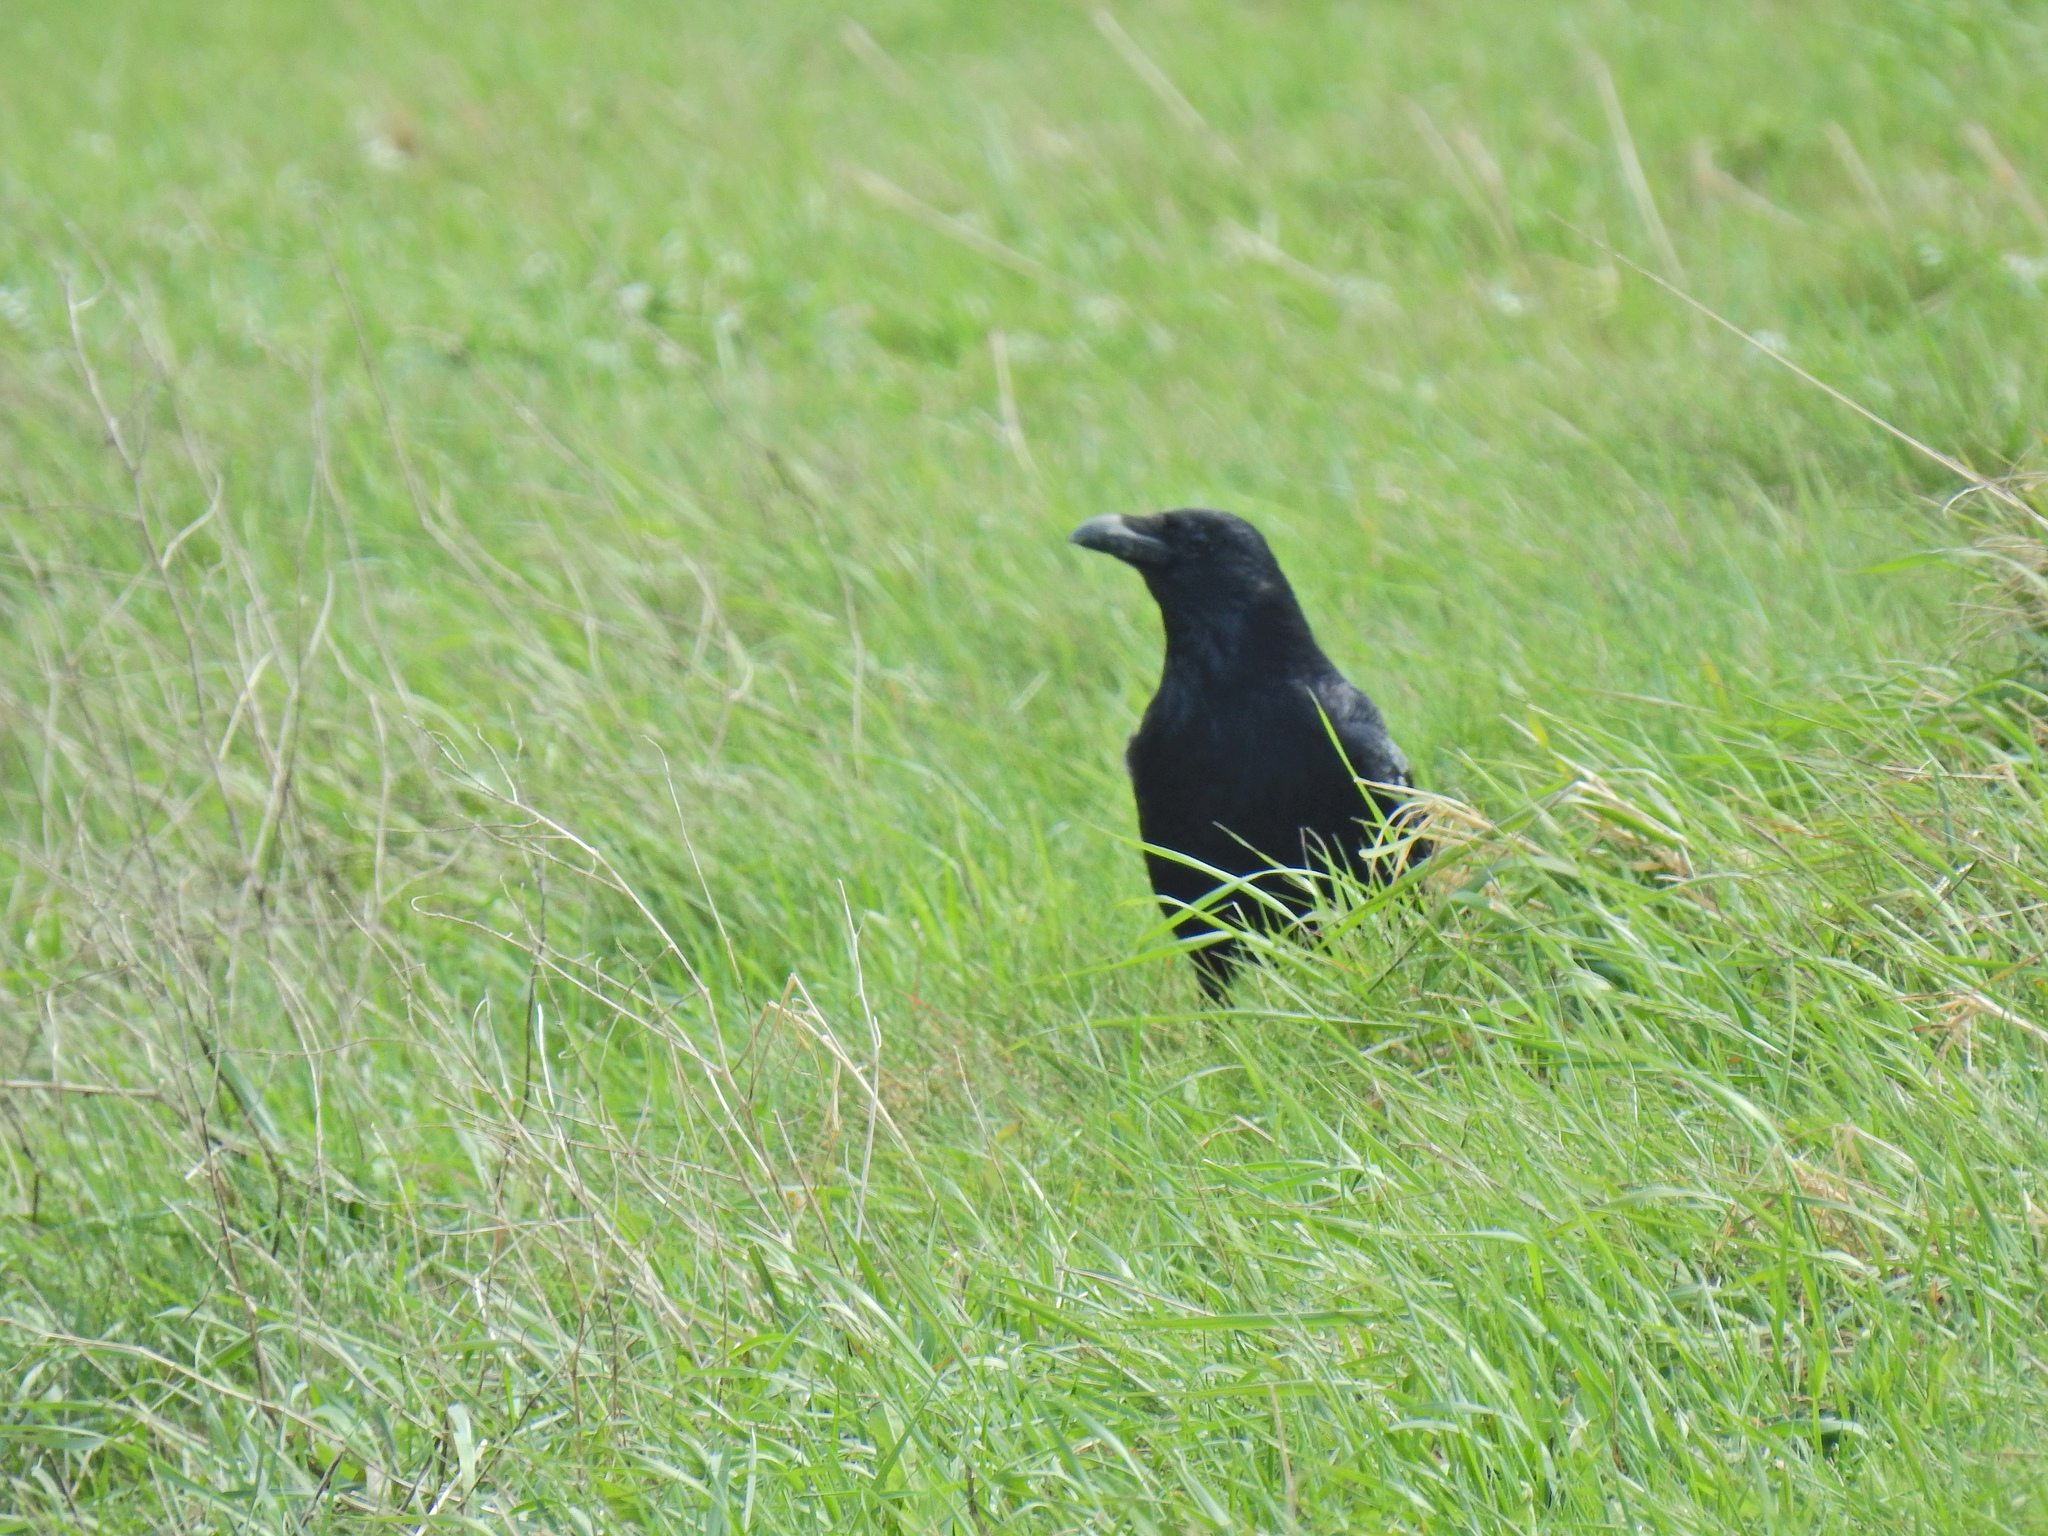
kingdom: Animalia
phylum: Chordata
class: Aves
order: Passeriformes
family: Corvidae
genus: Corvus
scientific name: Corvus corone
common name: Carrion crow
